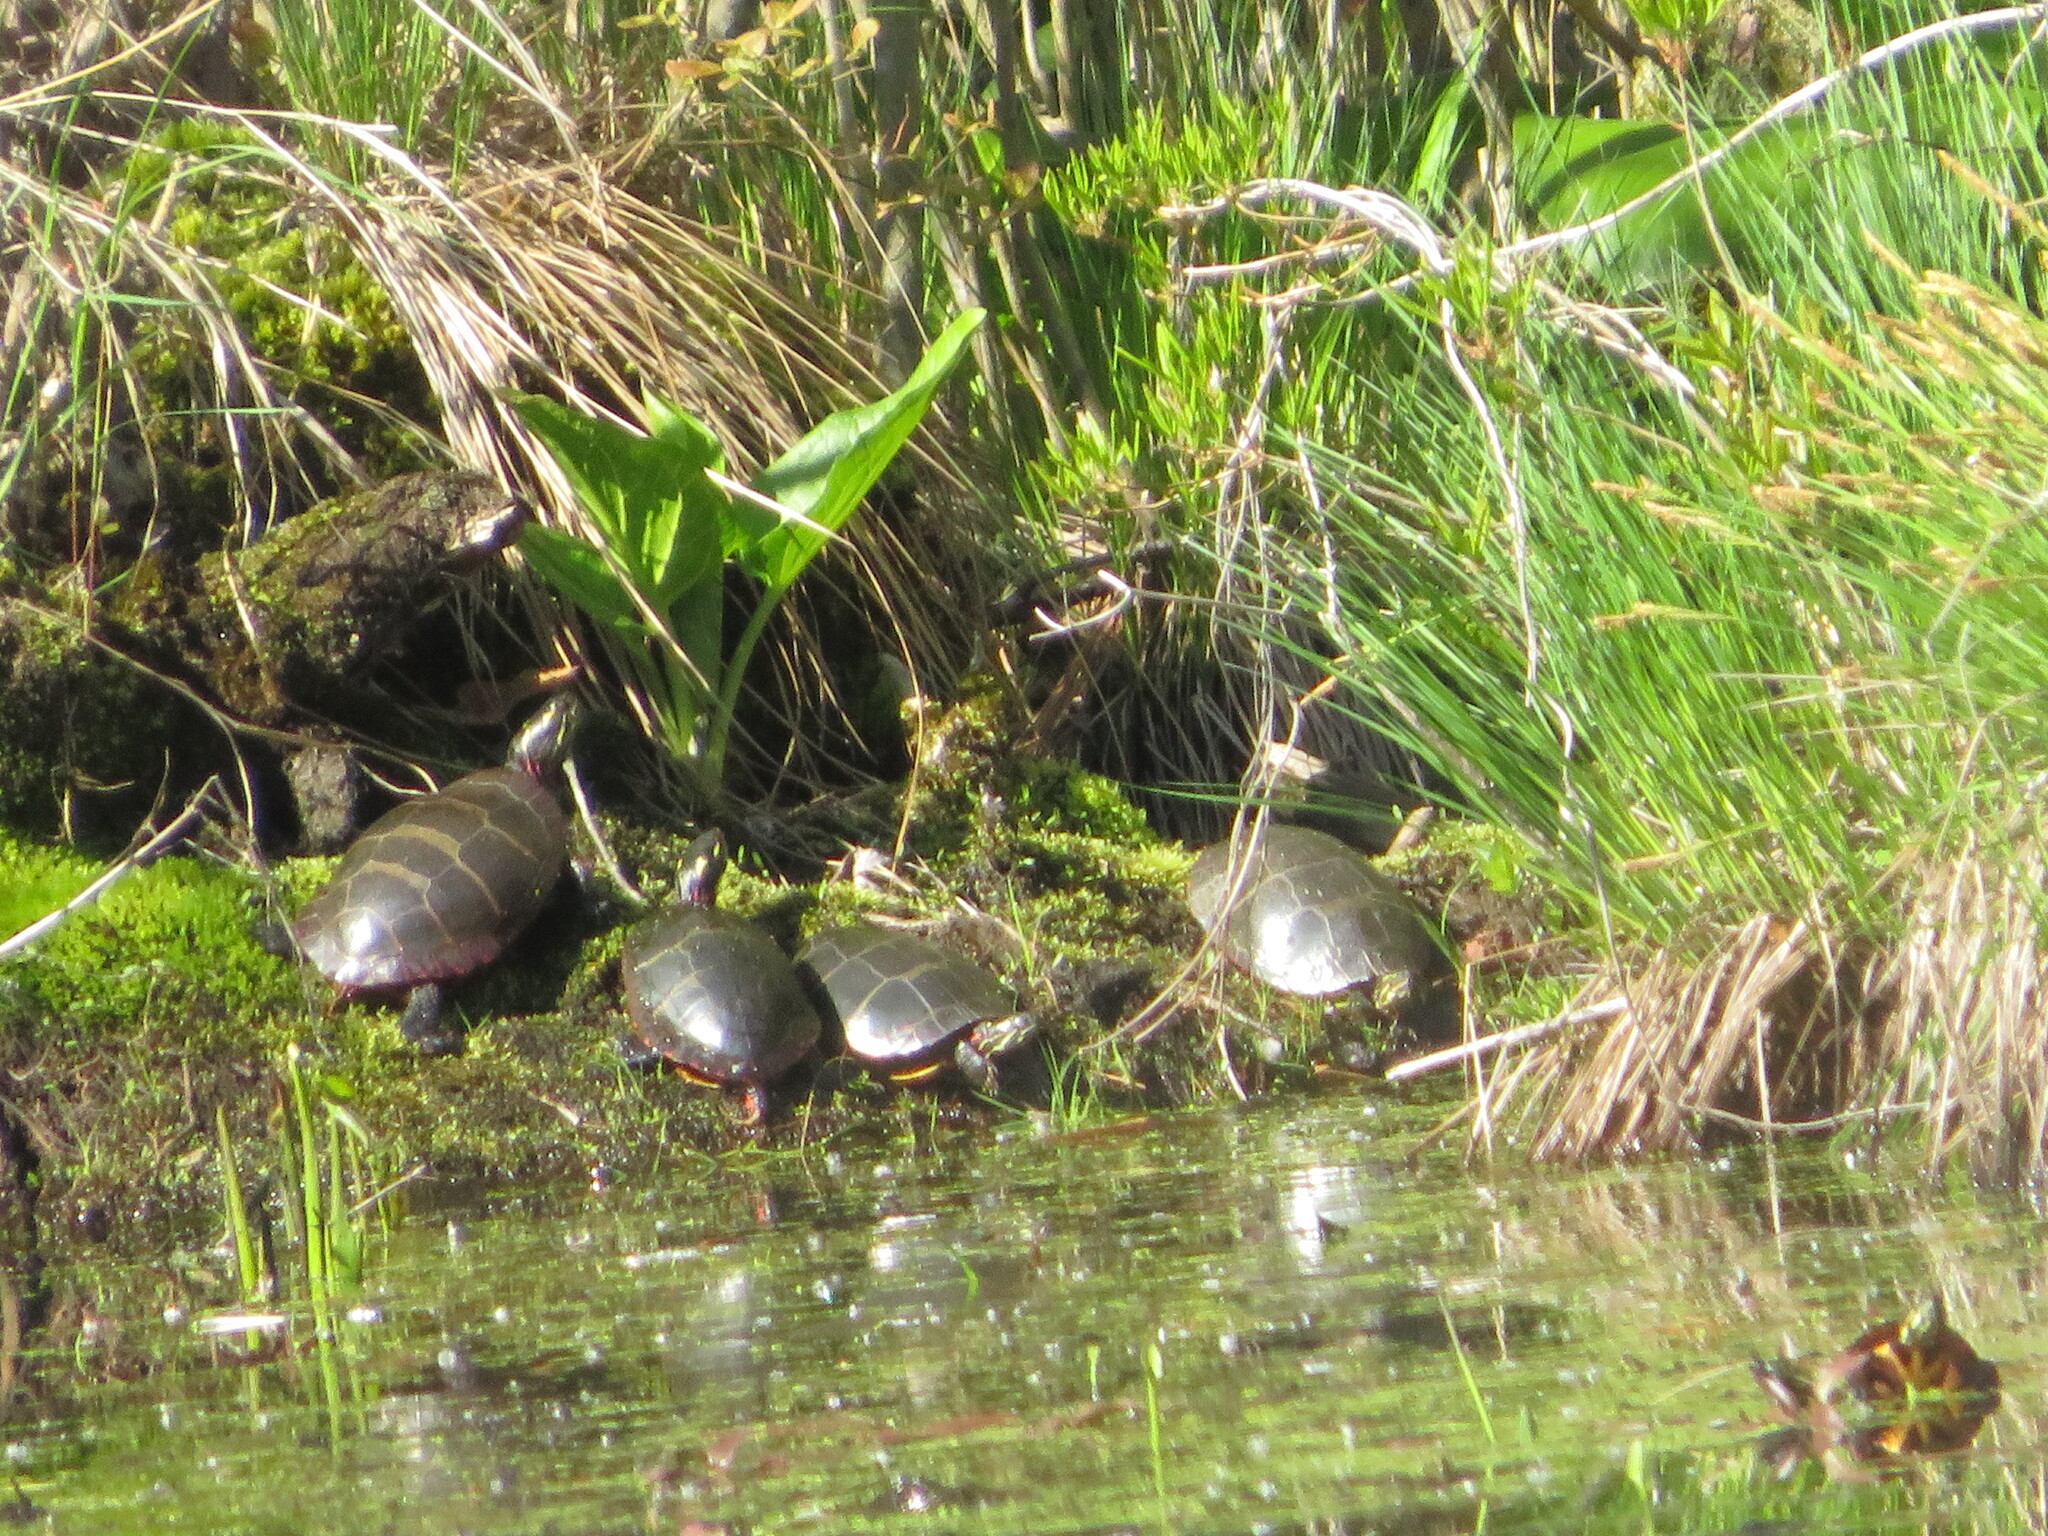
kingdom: Plantae
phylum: Tracheophyta
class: Liliopsida
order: Alismatales
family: Araceae
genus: Symplocarpus
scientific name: Symplocarpus foetidus
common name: Eastern skunk cabbage
